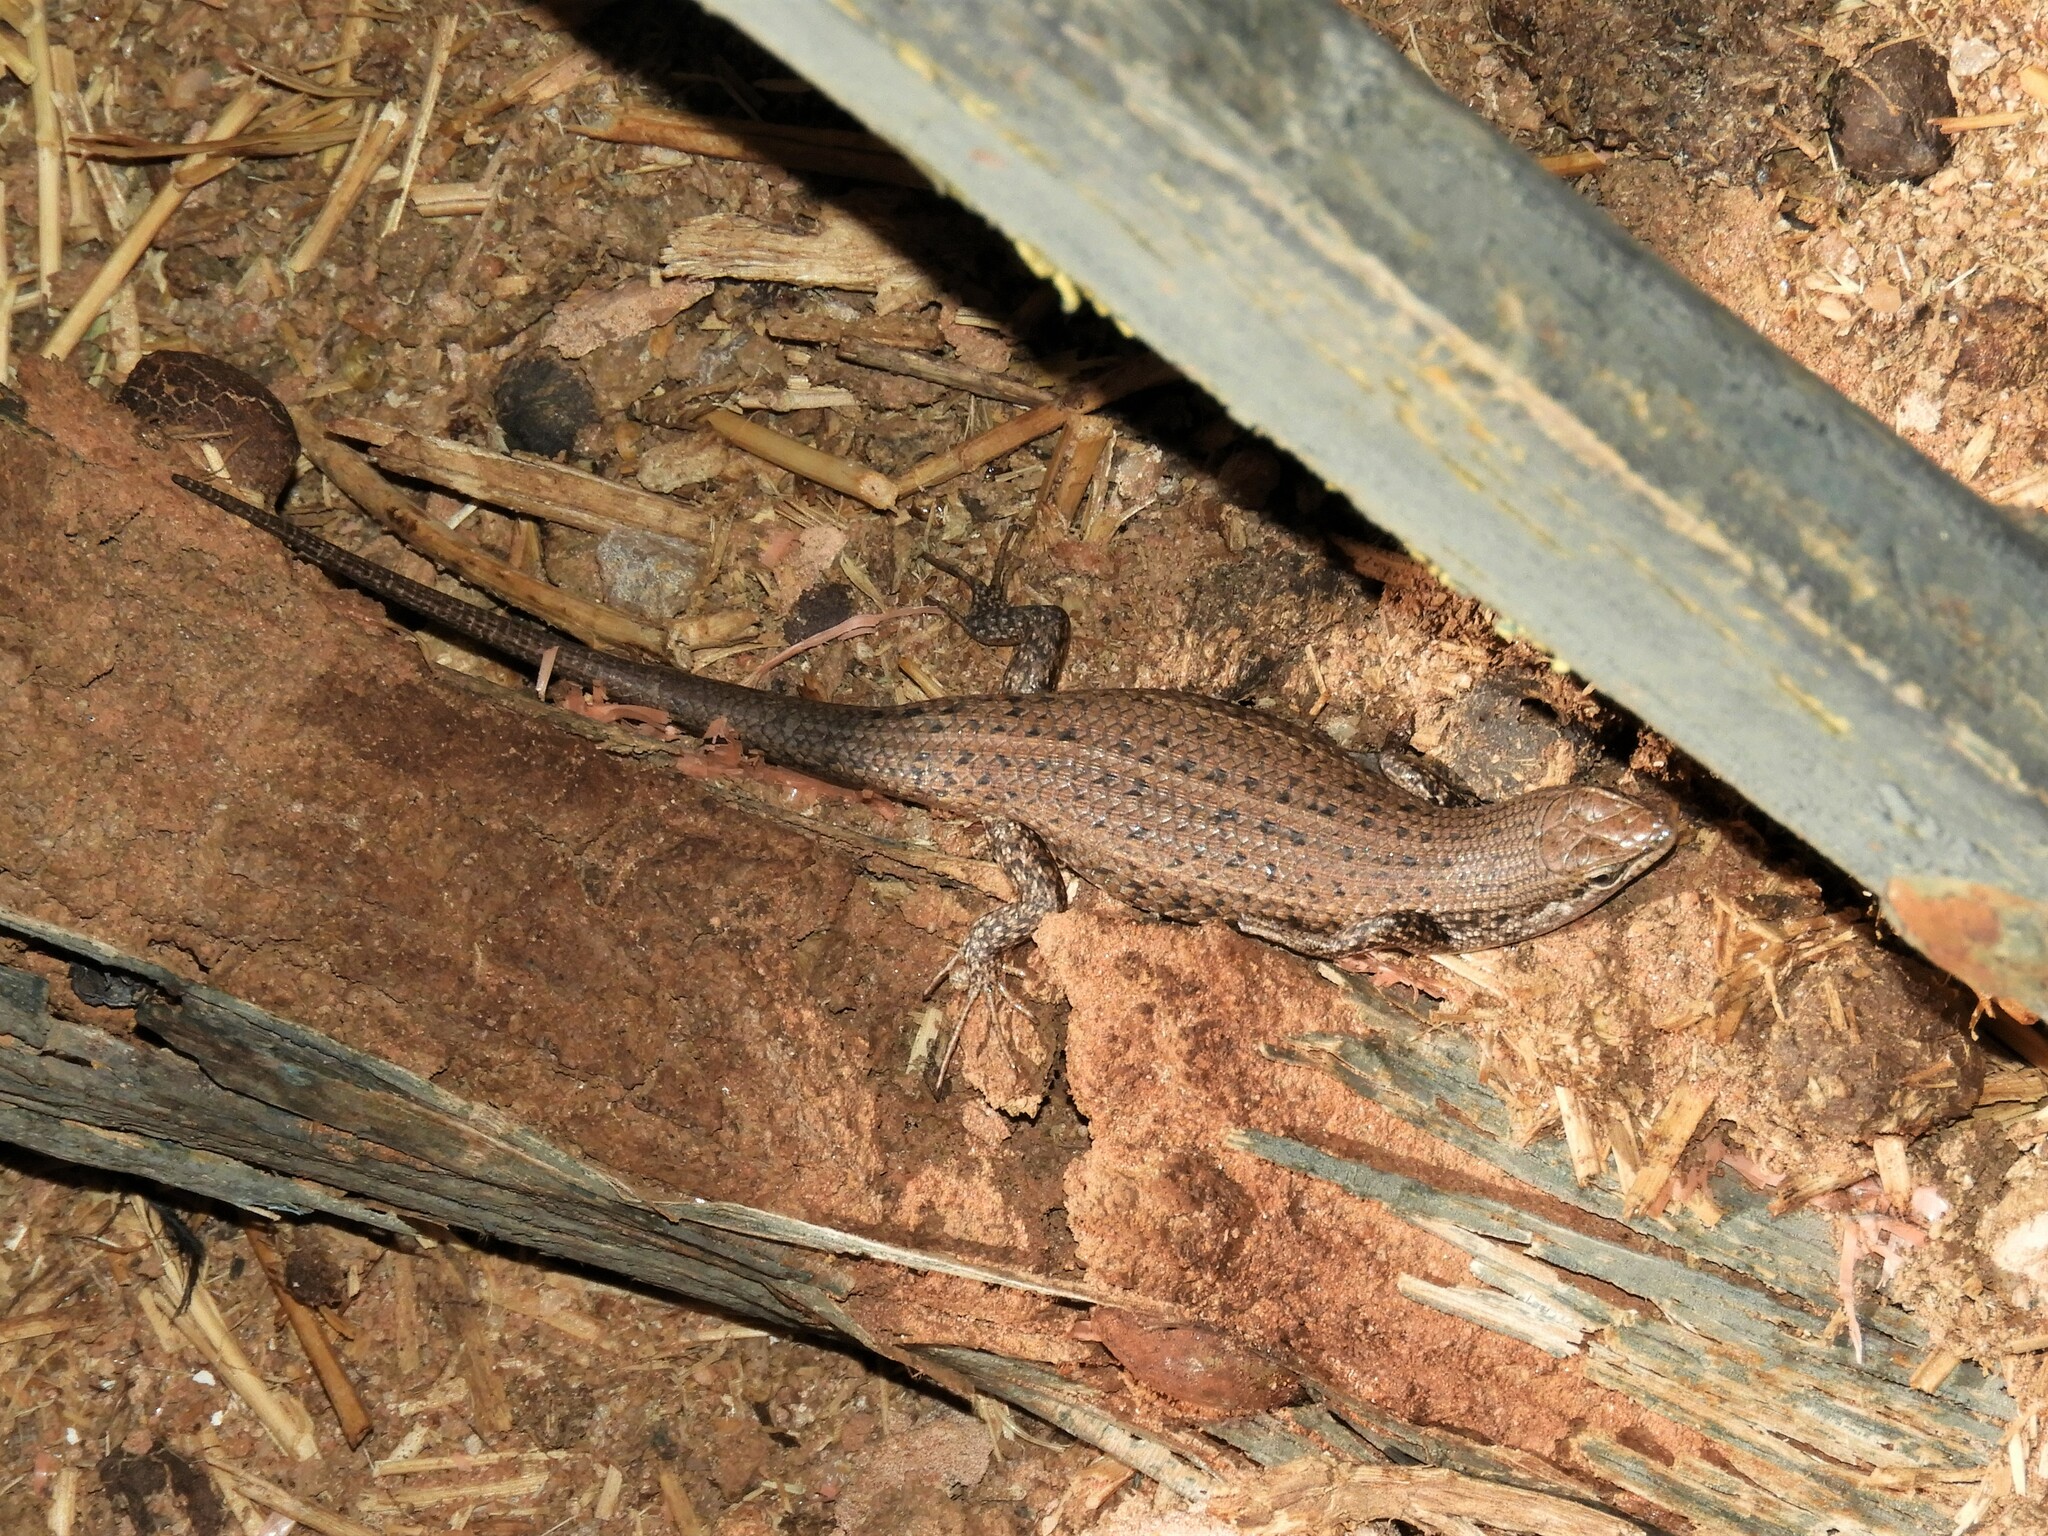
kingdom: Animalia
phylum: Chordata
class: Squamata
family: Scincidae
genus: Trachylepis
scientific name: Trachylepis variegata
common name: Variegated skink
